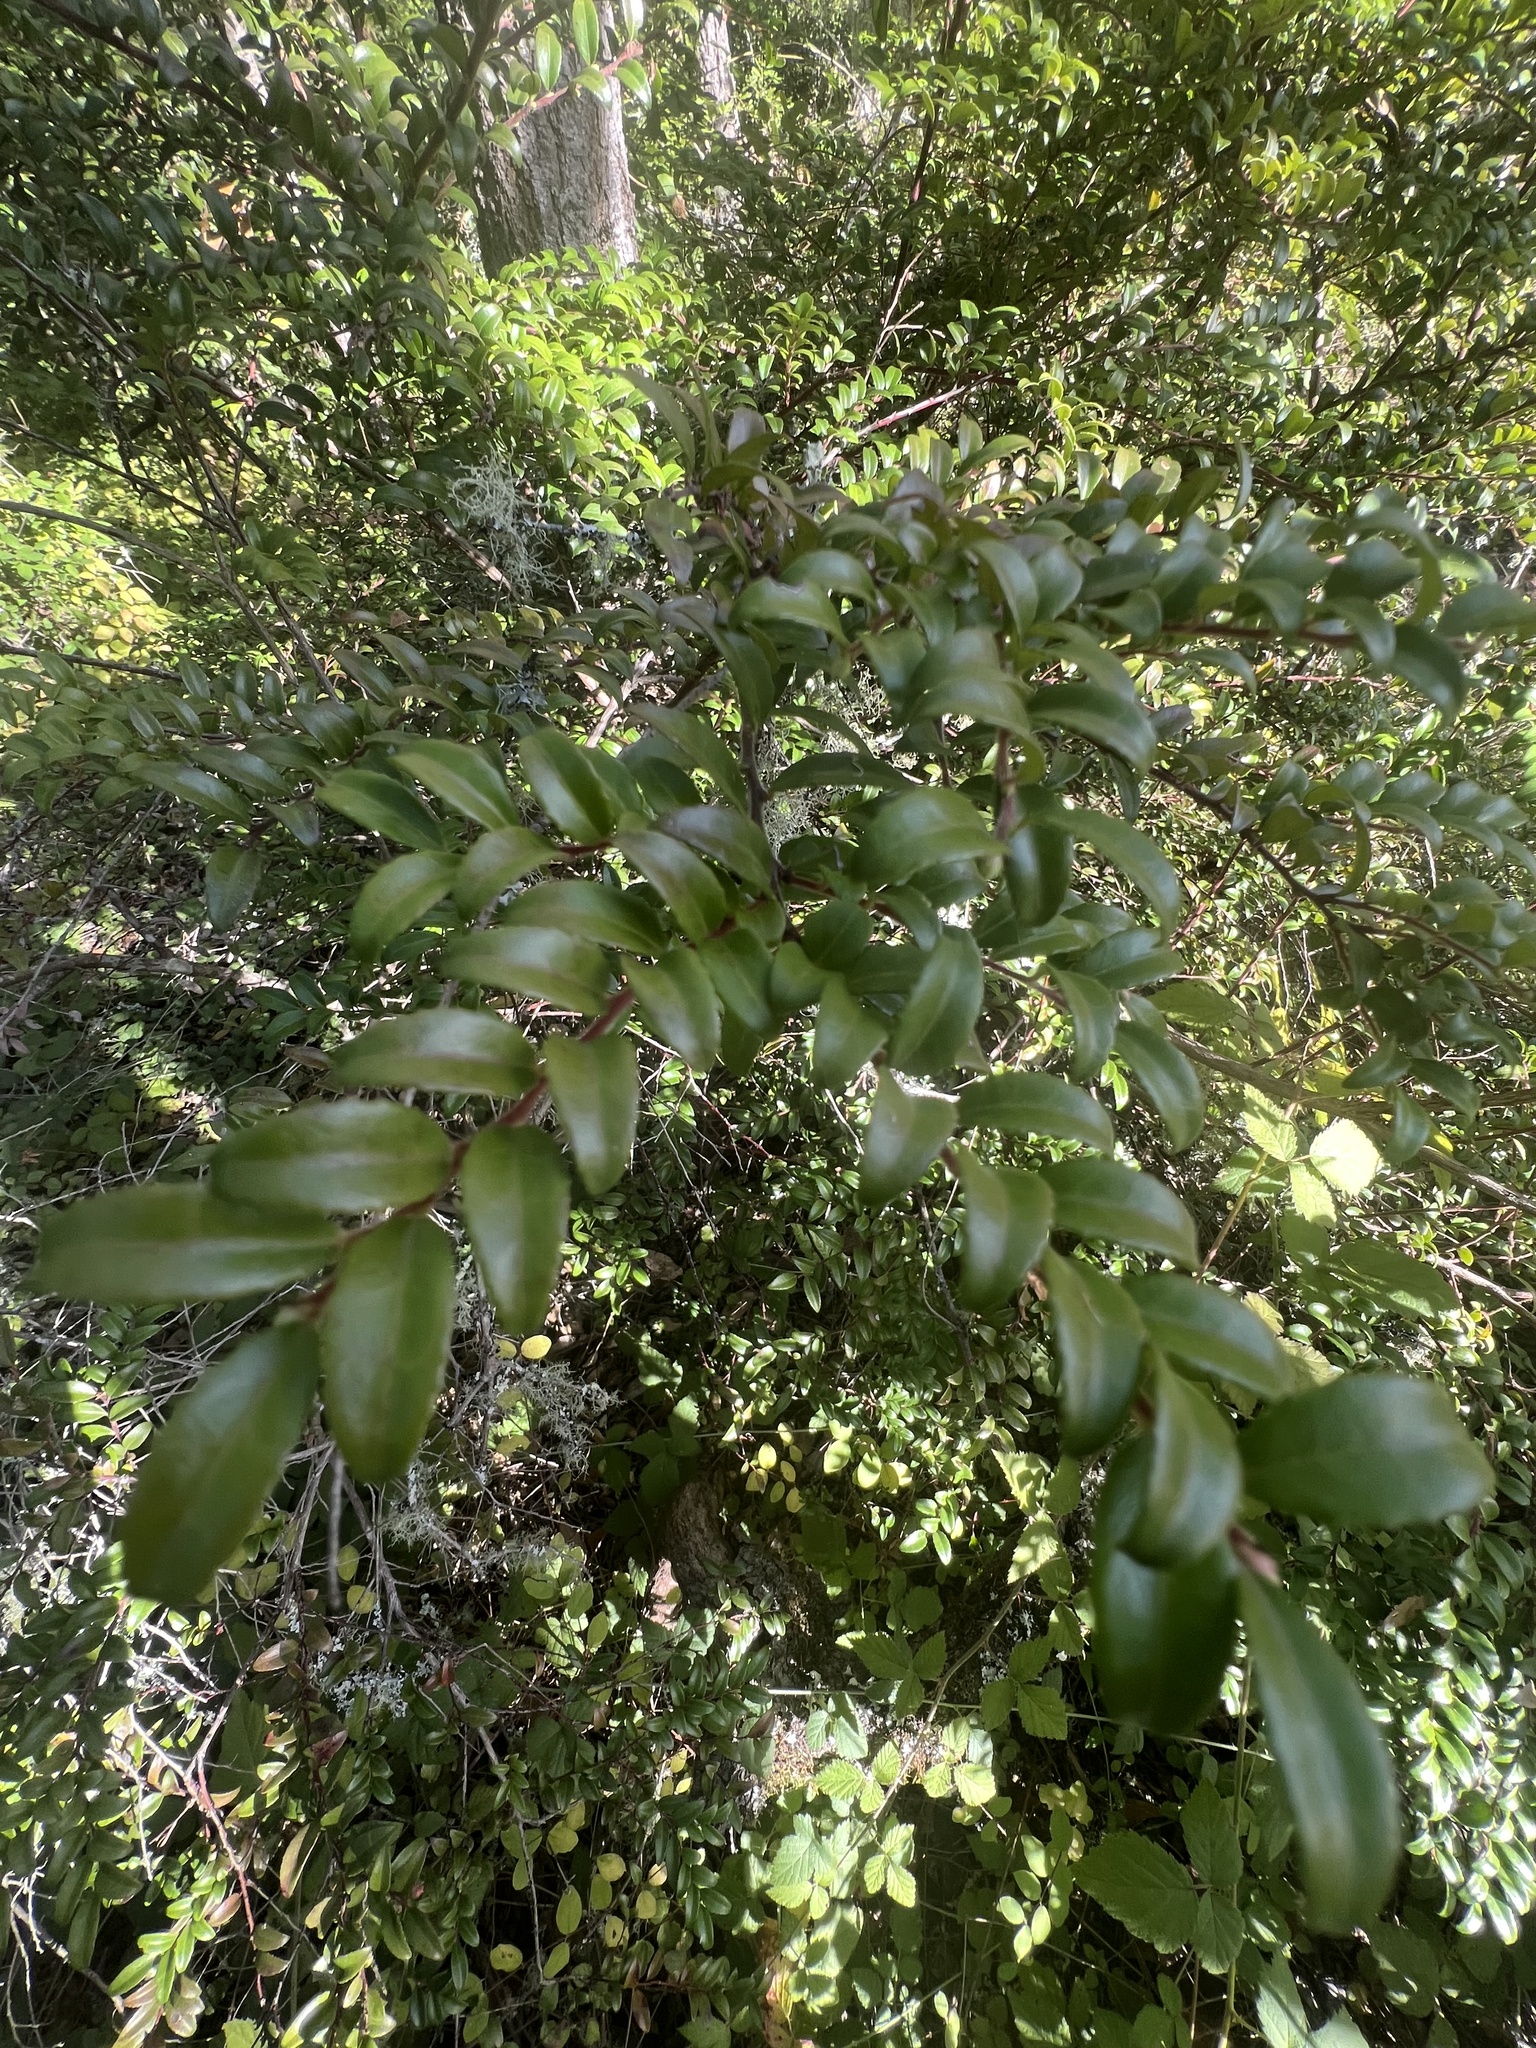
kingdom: Plantae
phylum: Tracheophyta
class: Magnoliopsida
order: Ericales
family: Ericaceae
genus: Vaccinium
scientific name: Vaccinium ovatum
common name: California-huckleberry
